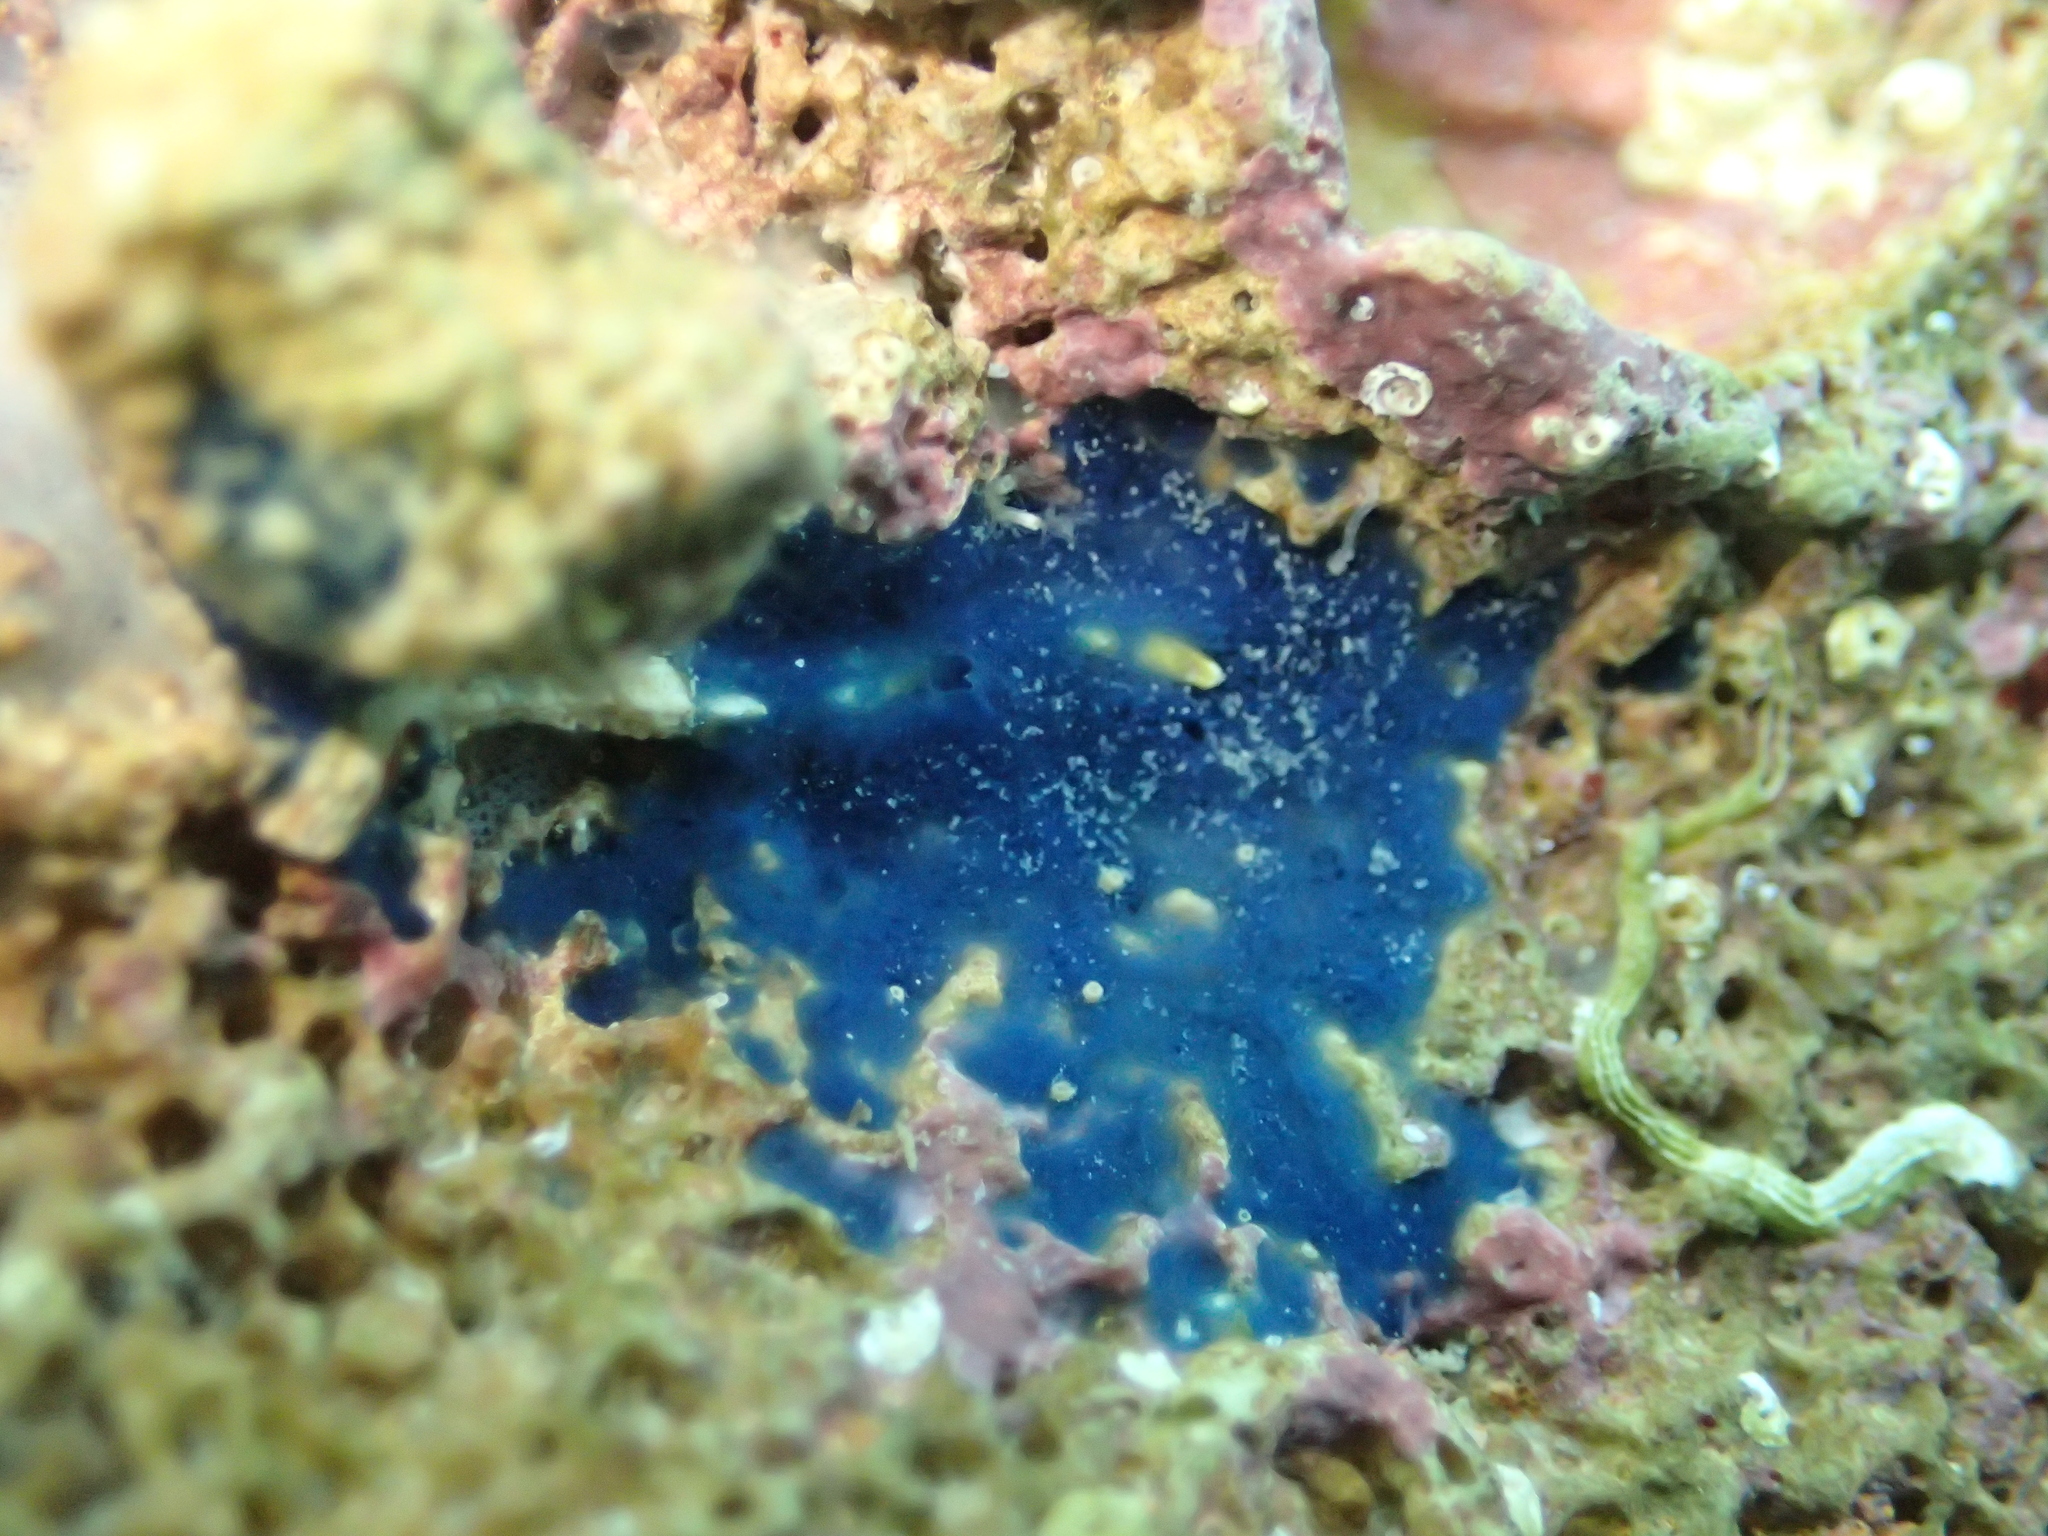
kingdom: Animalia
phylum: Porifera
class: Demospongiae
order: Suberitida
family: Suberitidae
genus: Terpios
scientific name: Terpios gelatinosus
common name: Blue encrusting sponge
